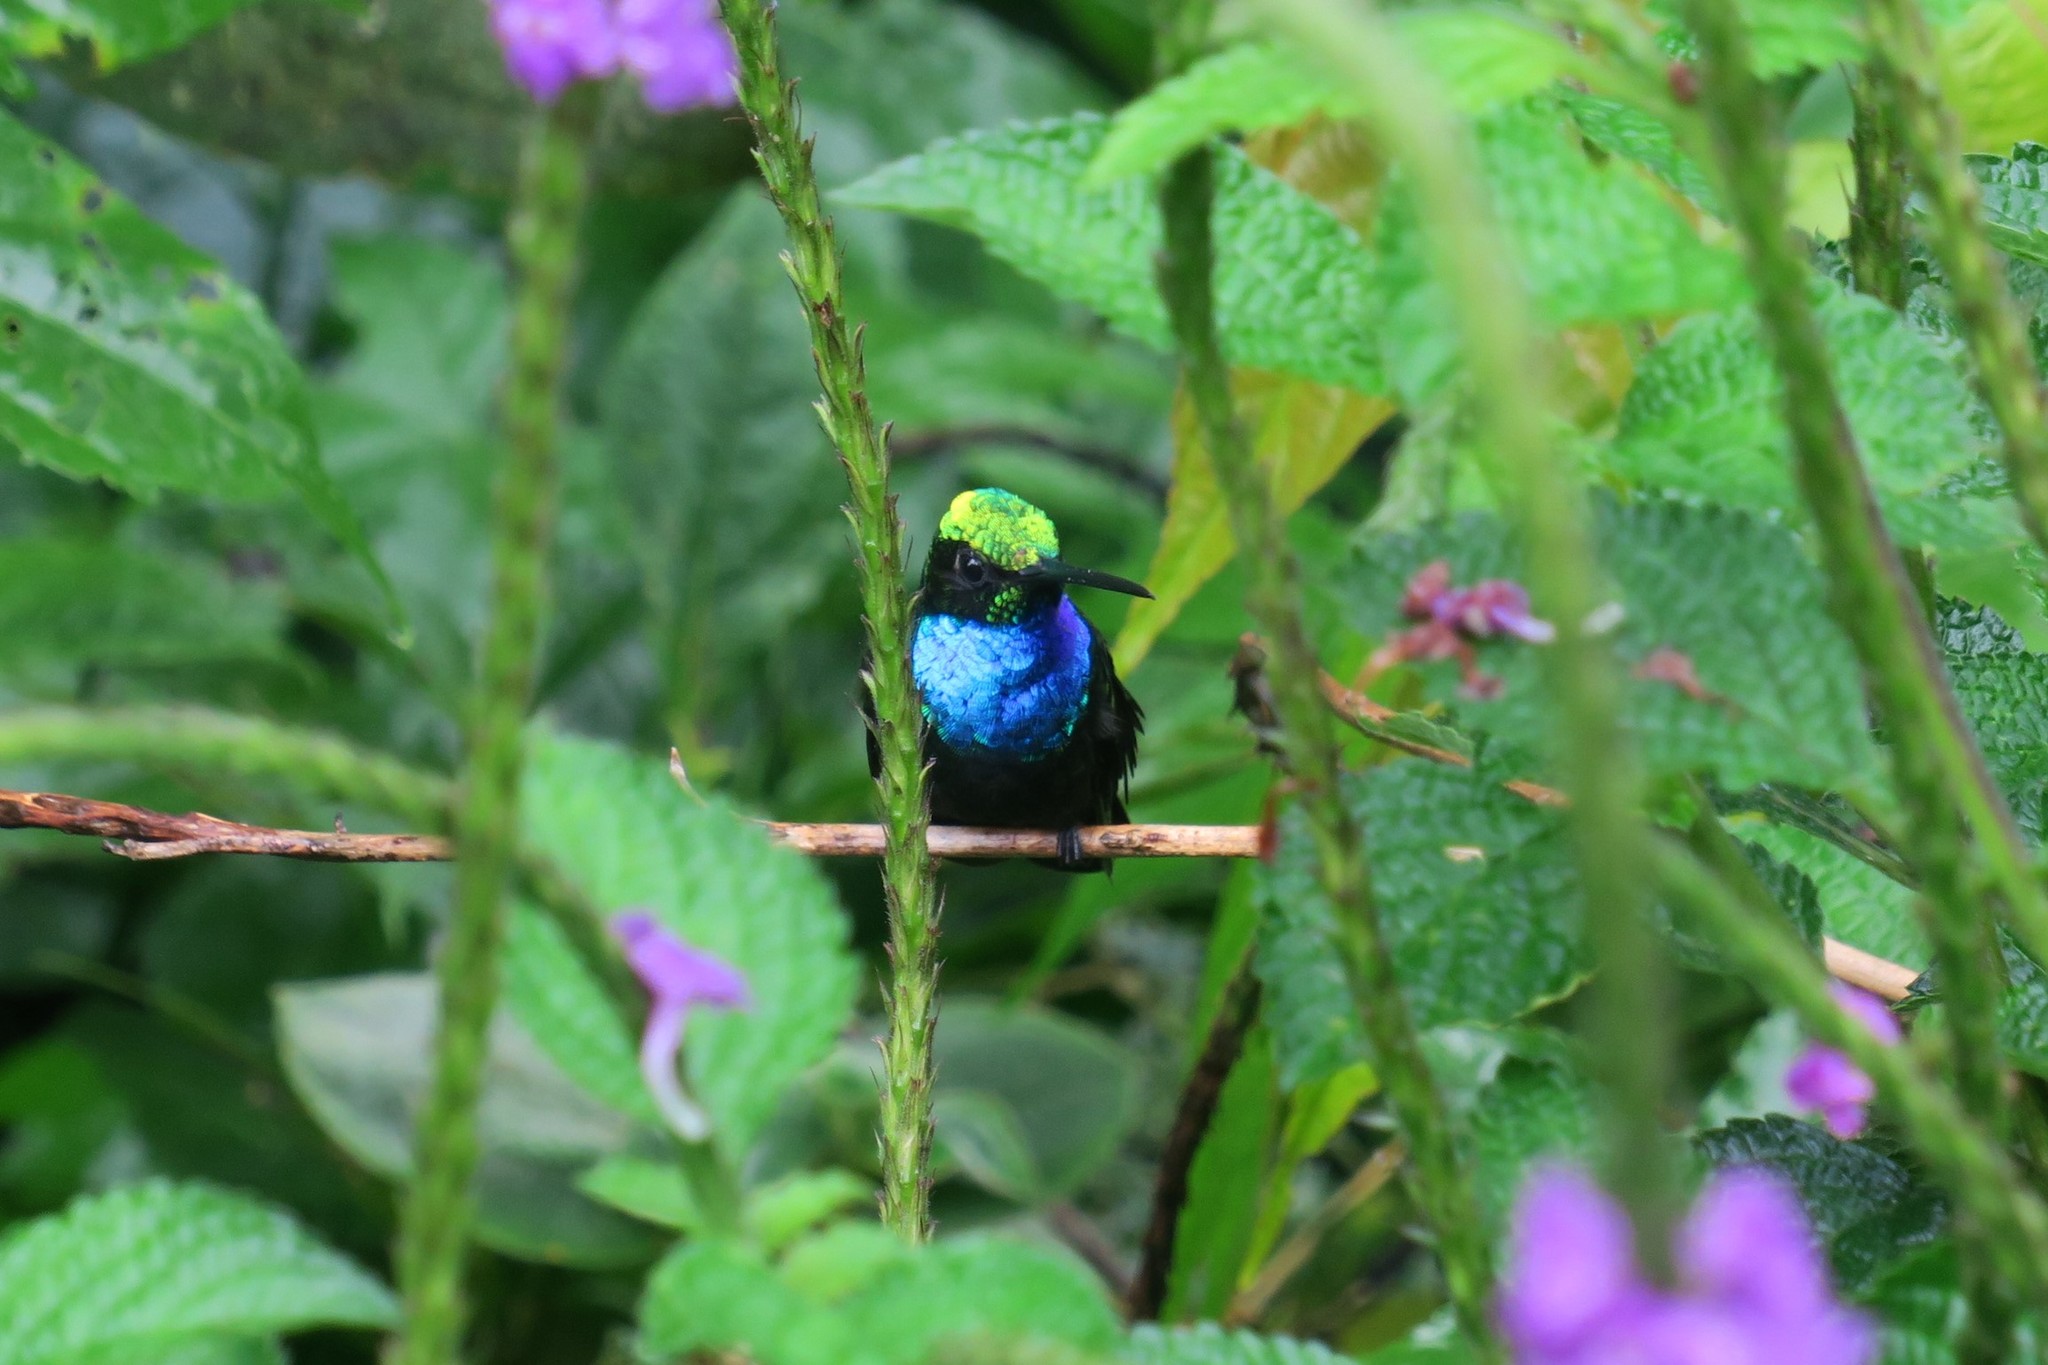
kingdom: Animalia
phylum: Chordata
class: Aves
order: Apodiformes
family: Trochilidae
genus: Campylopterus
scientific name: Campylopterus villaviscensio
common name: Napo sabrewing
